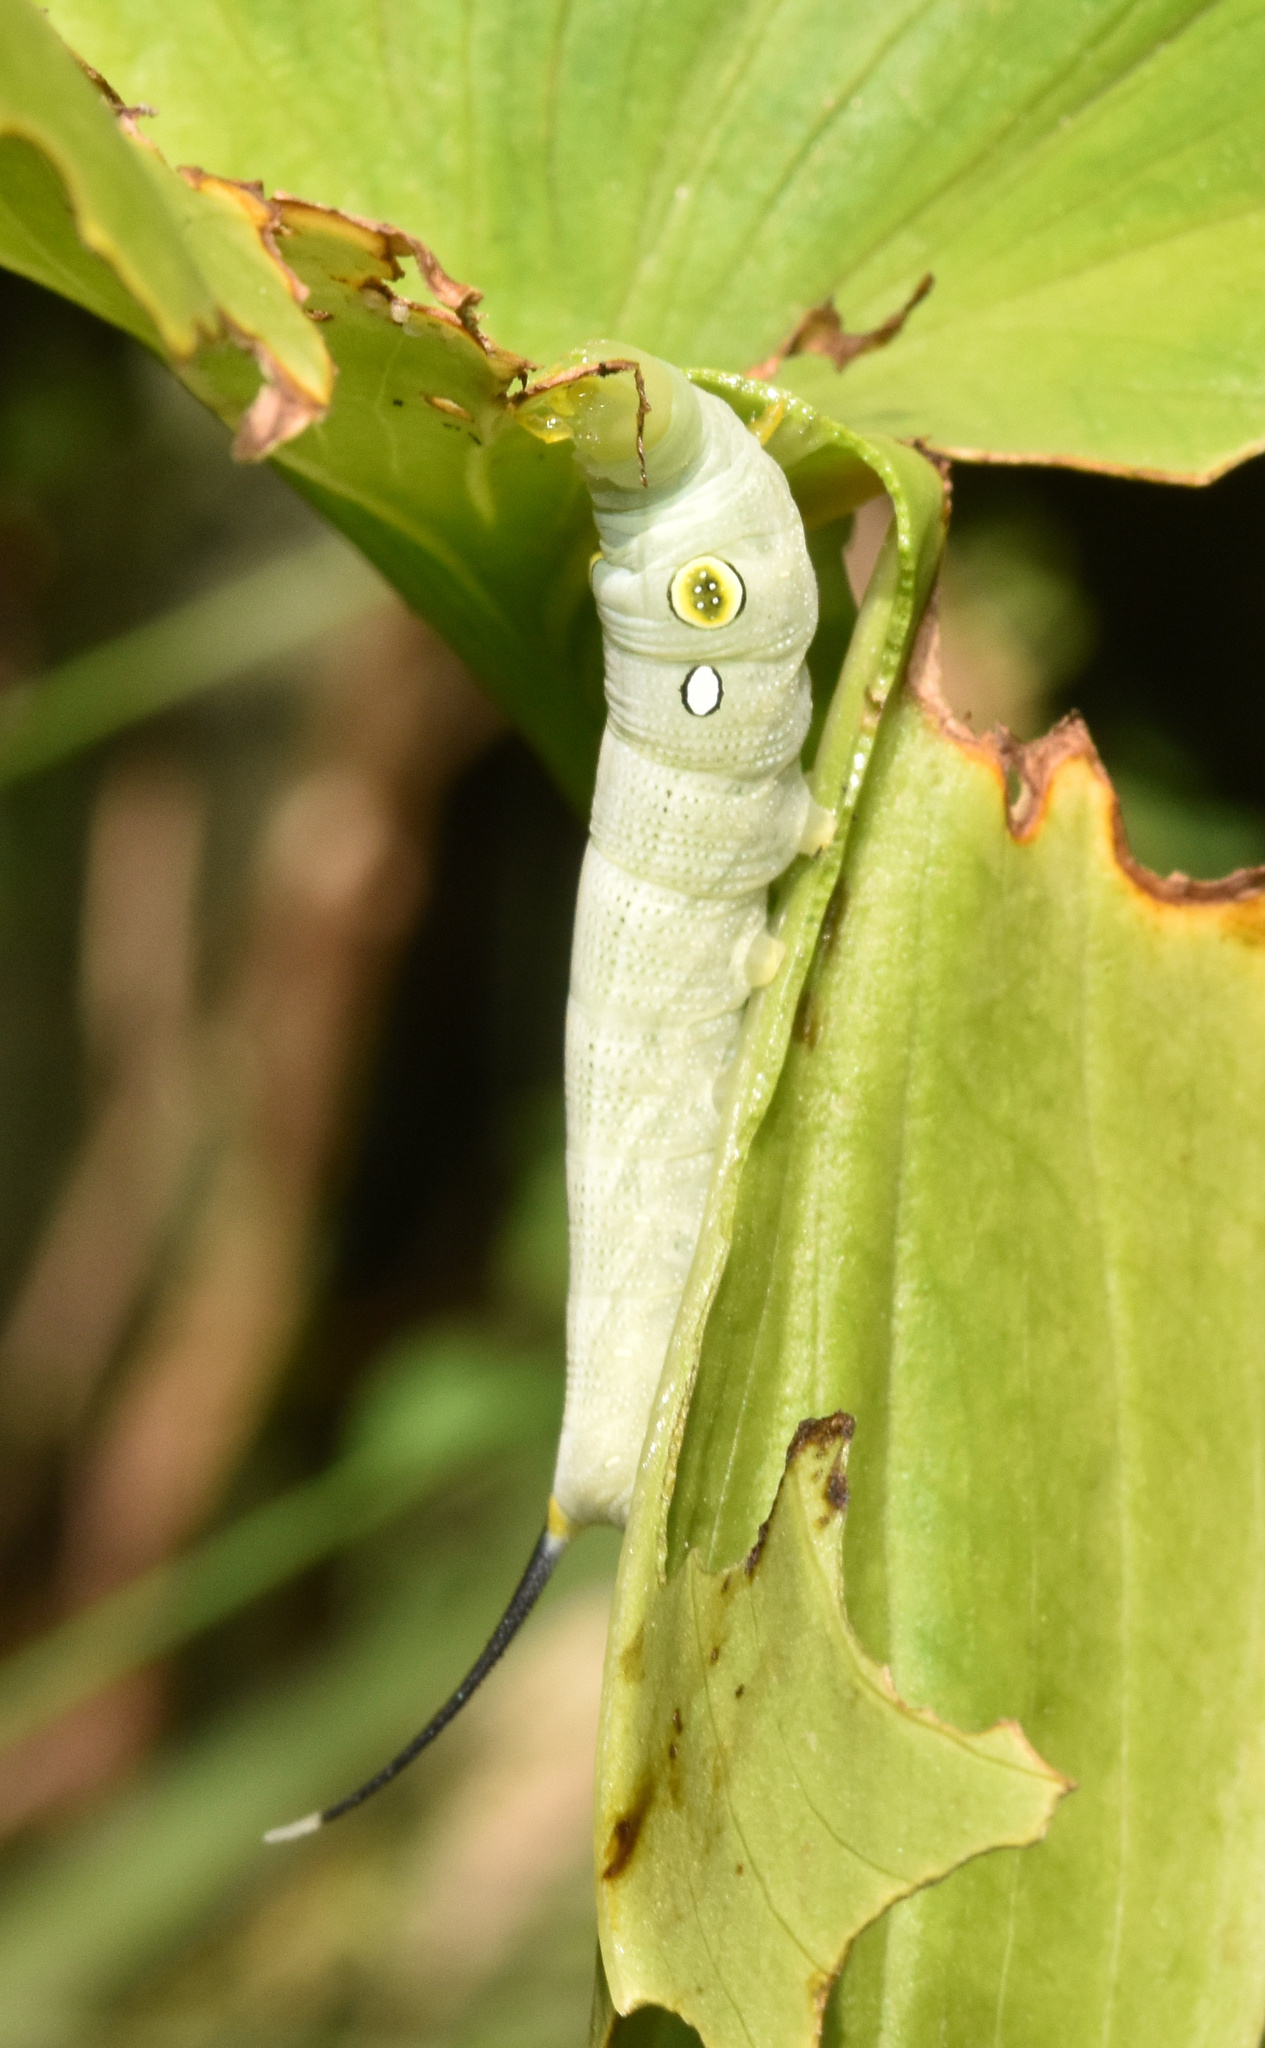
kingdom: Animalia
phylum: Arthropoda
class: Insecta
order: Lepidoptera
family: Sphingidae
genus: Hippotion
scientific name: Hippotion eson
